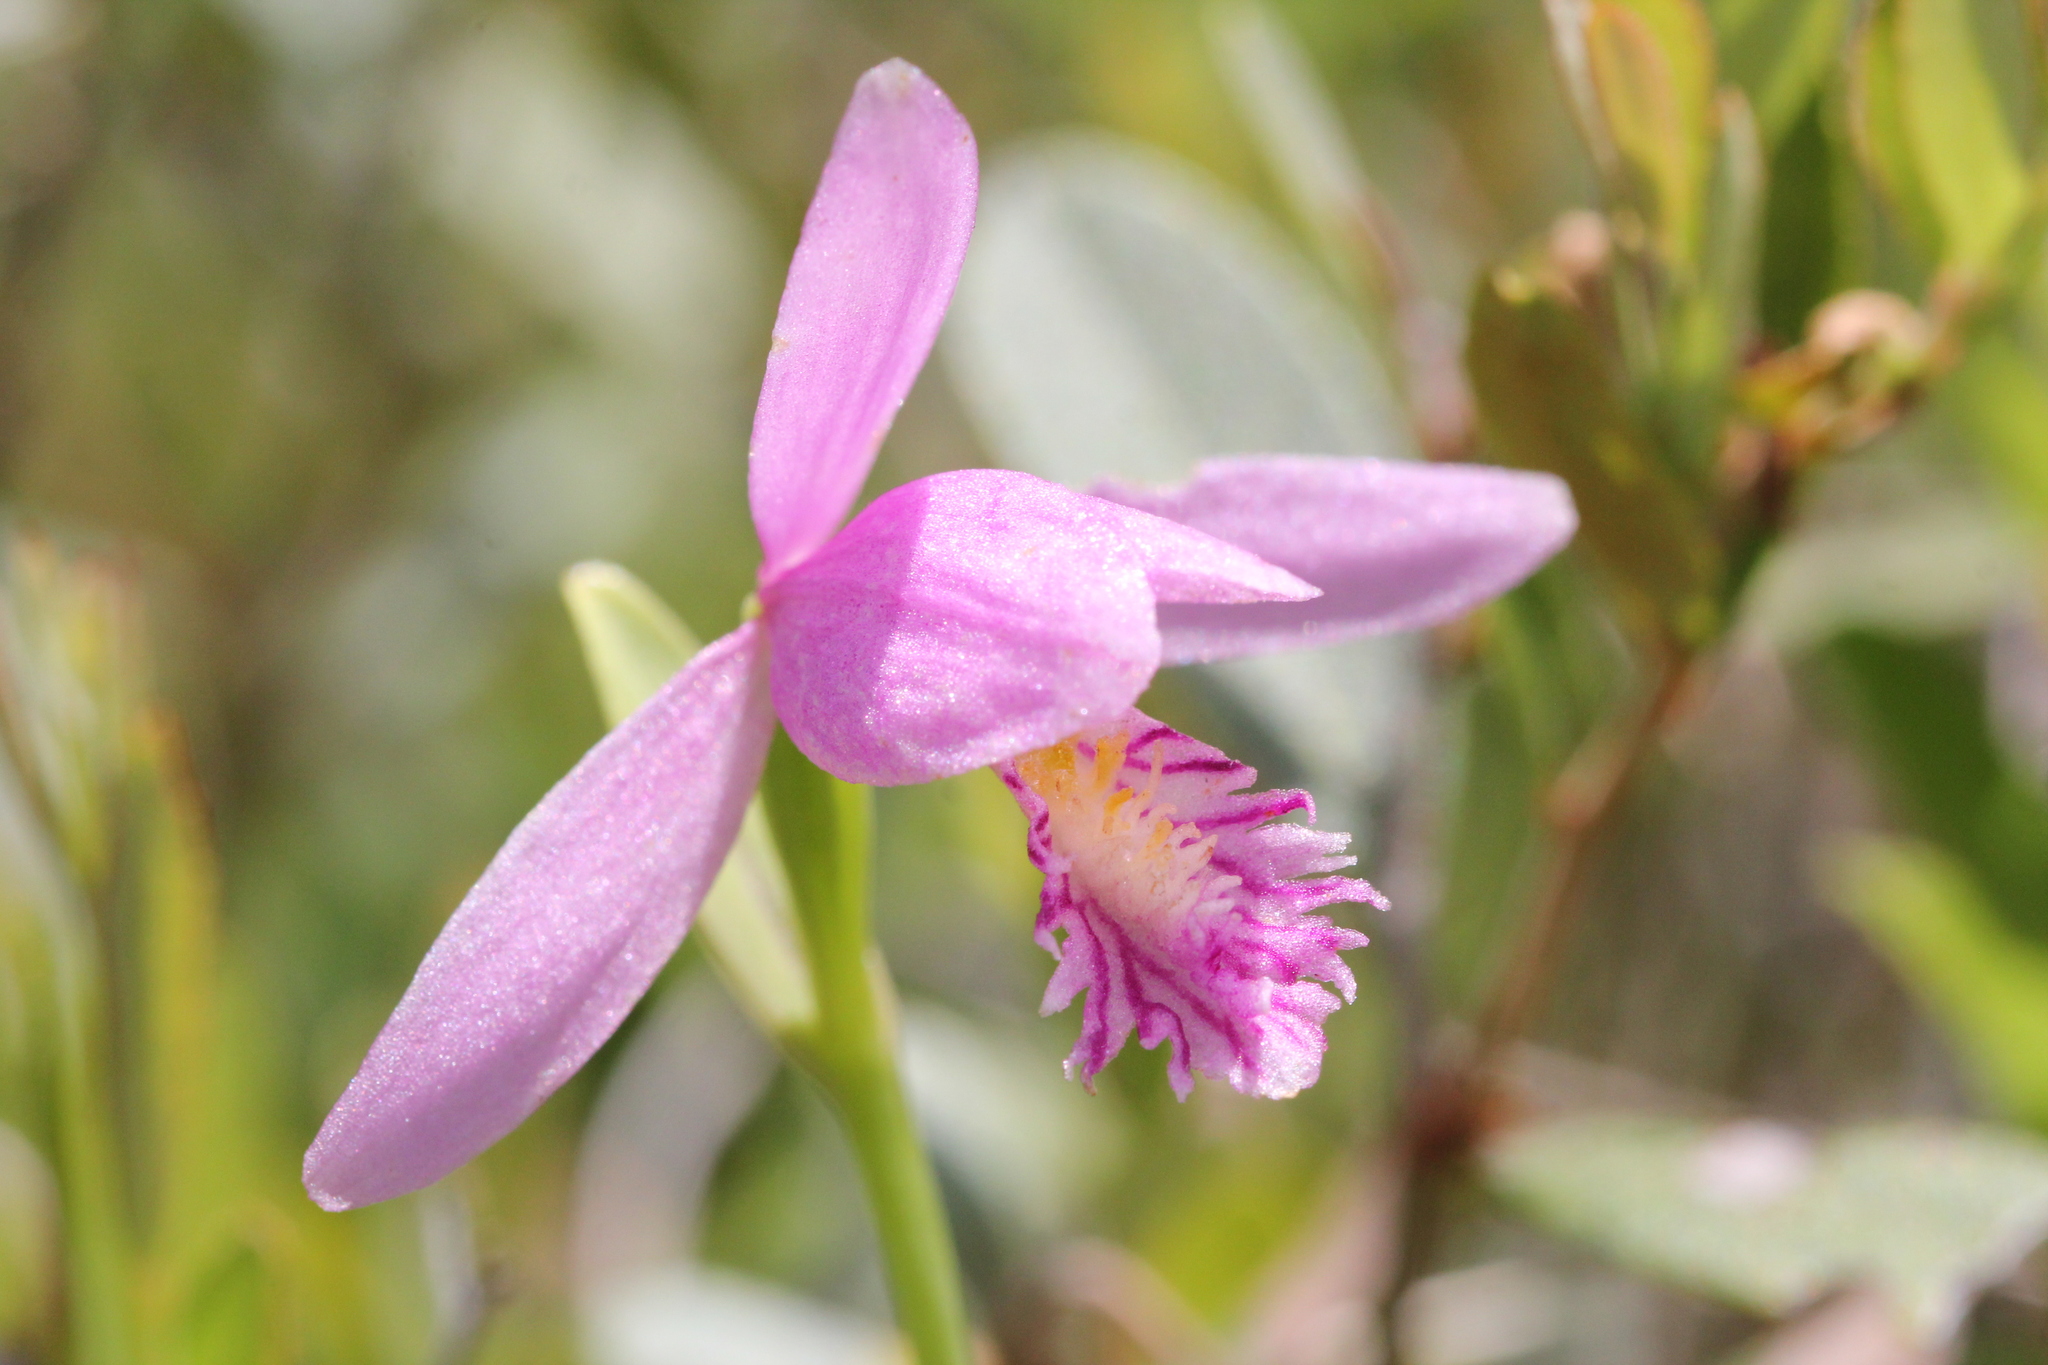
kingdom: Plantae
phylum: Tracheophyta
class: Liliopsida
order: Asparagales
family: Orchidaceae
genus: Pogonia
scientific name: Pogonia ophioglossoides
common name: Rose pogonia
